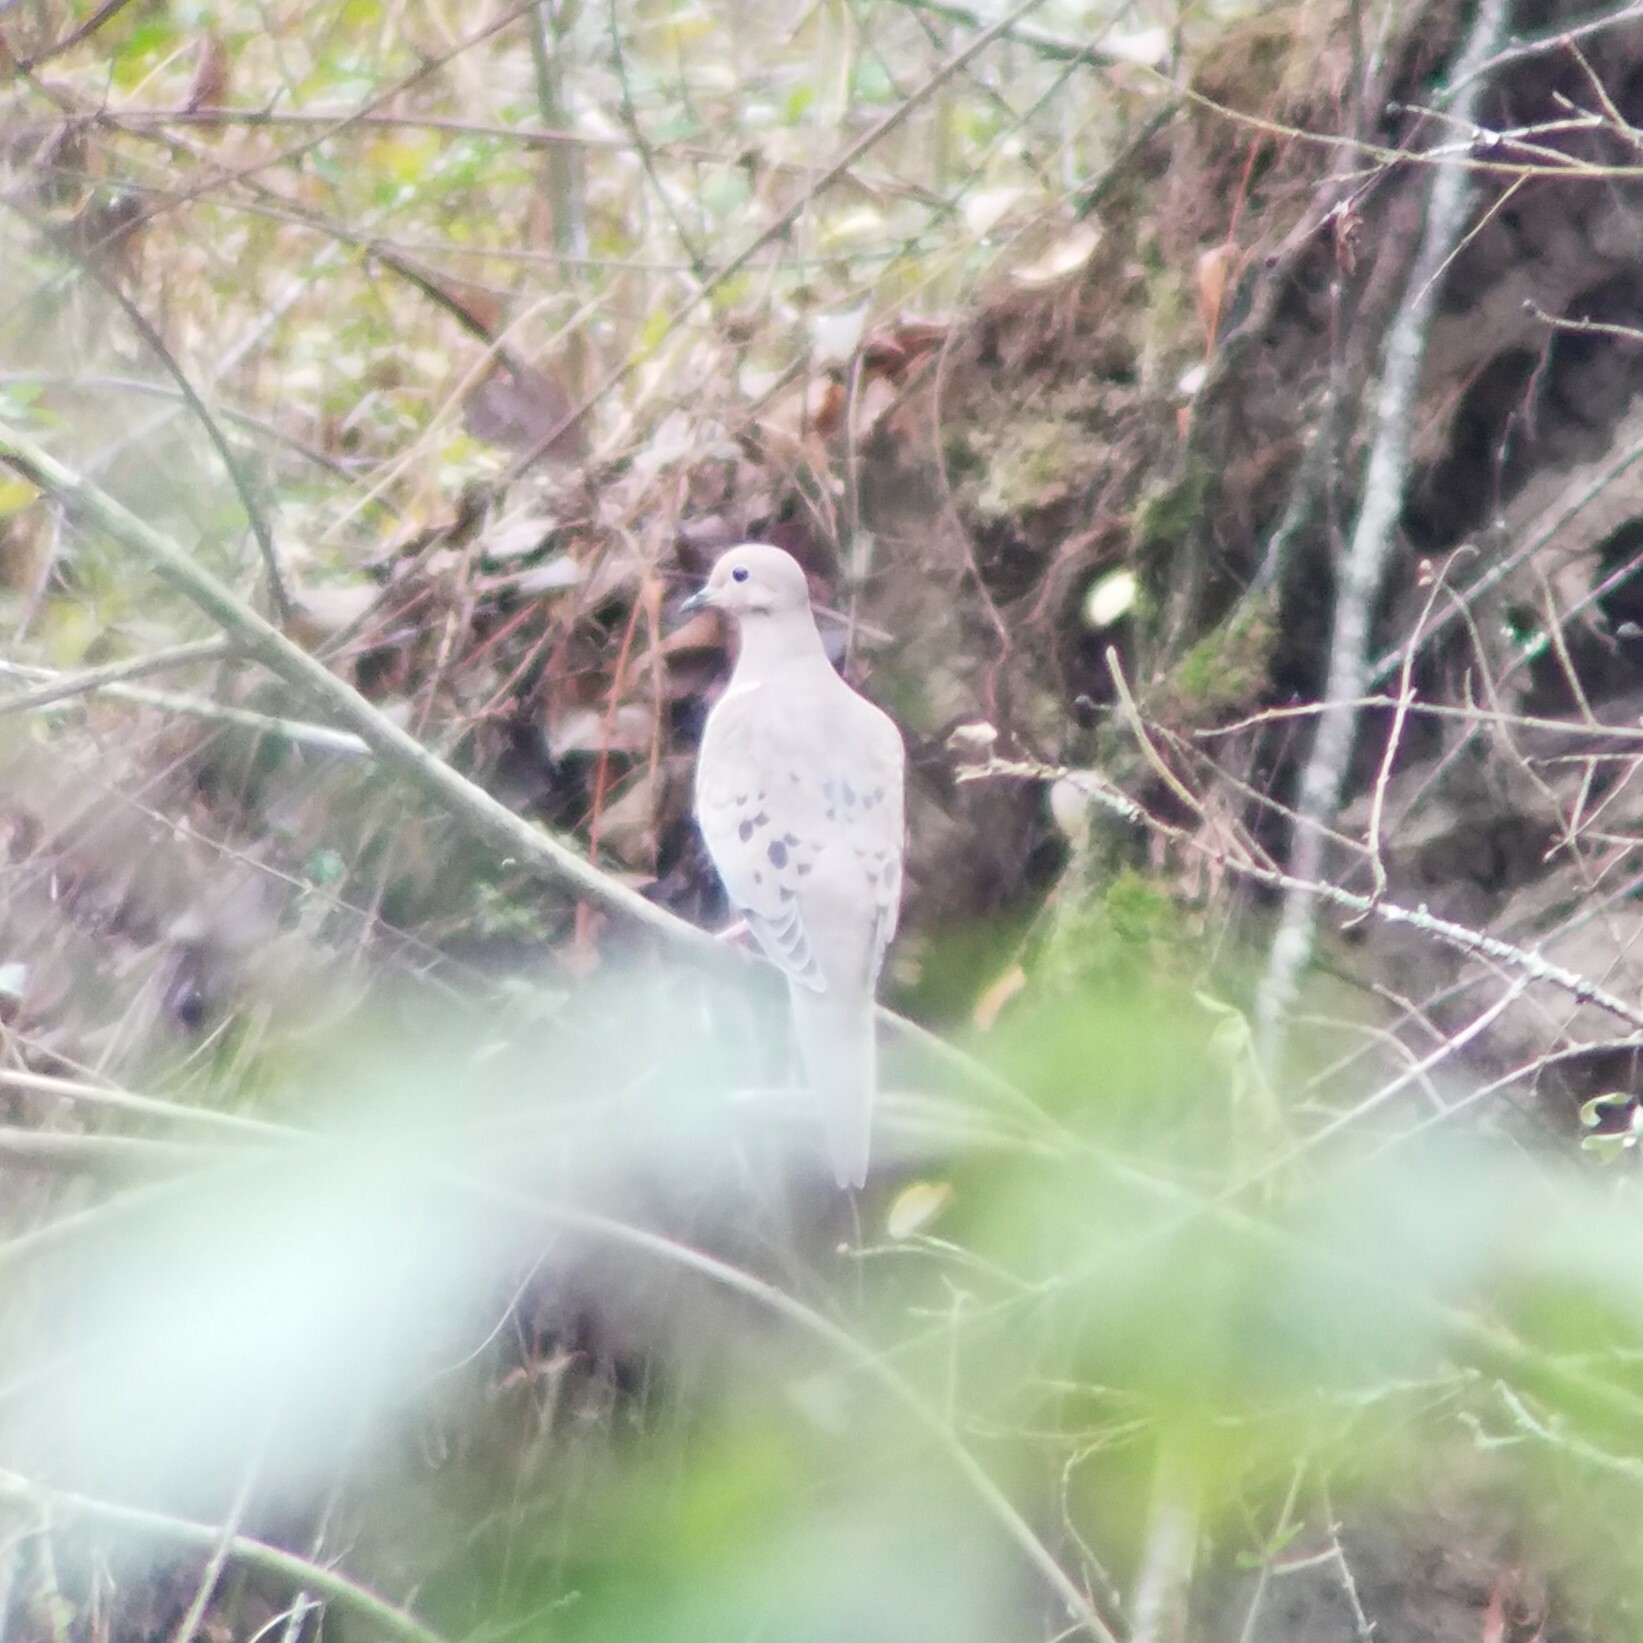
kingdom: Animalia
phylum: Chordata
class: Aves
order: Columbiformes
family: Columbidae
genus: Zenaida
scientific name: Zenaida macroura
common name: Mourning dove
